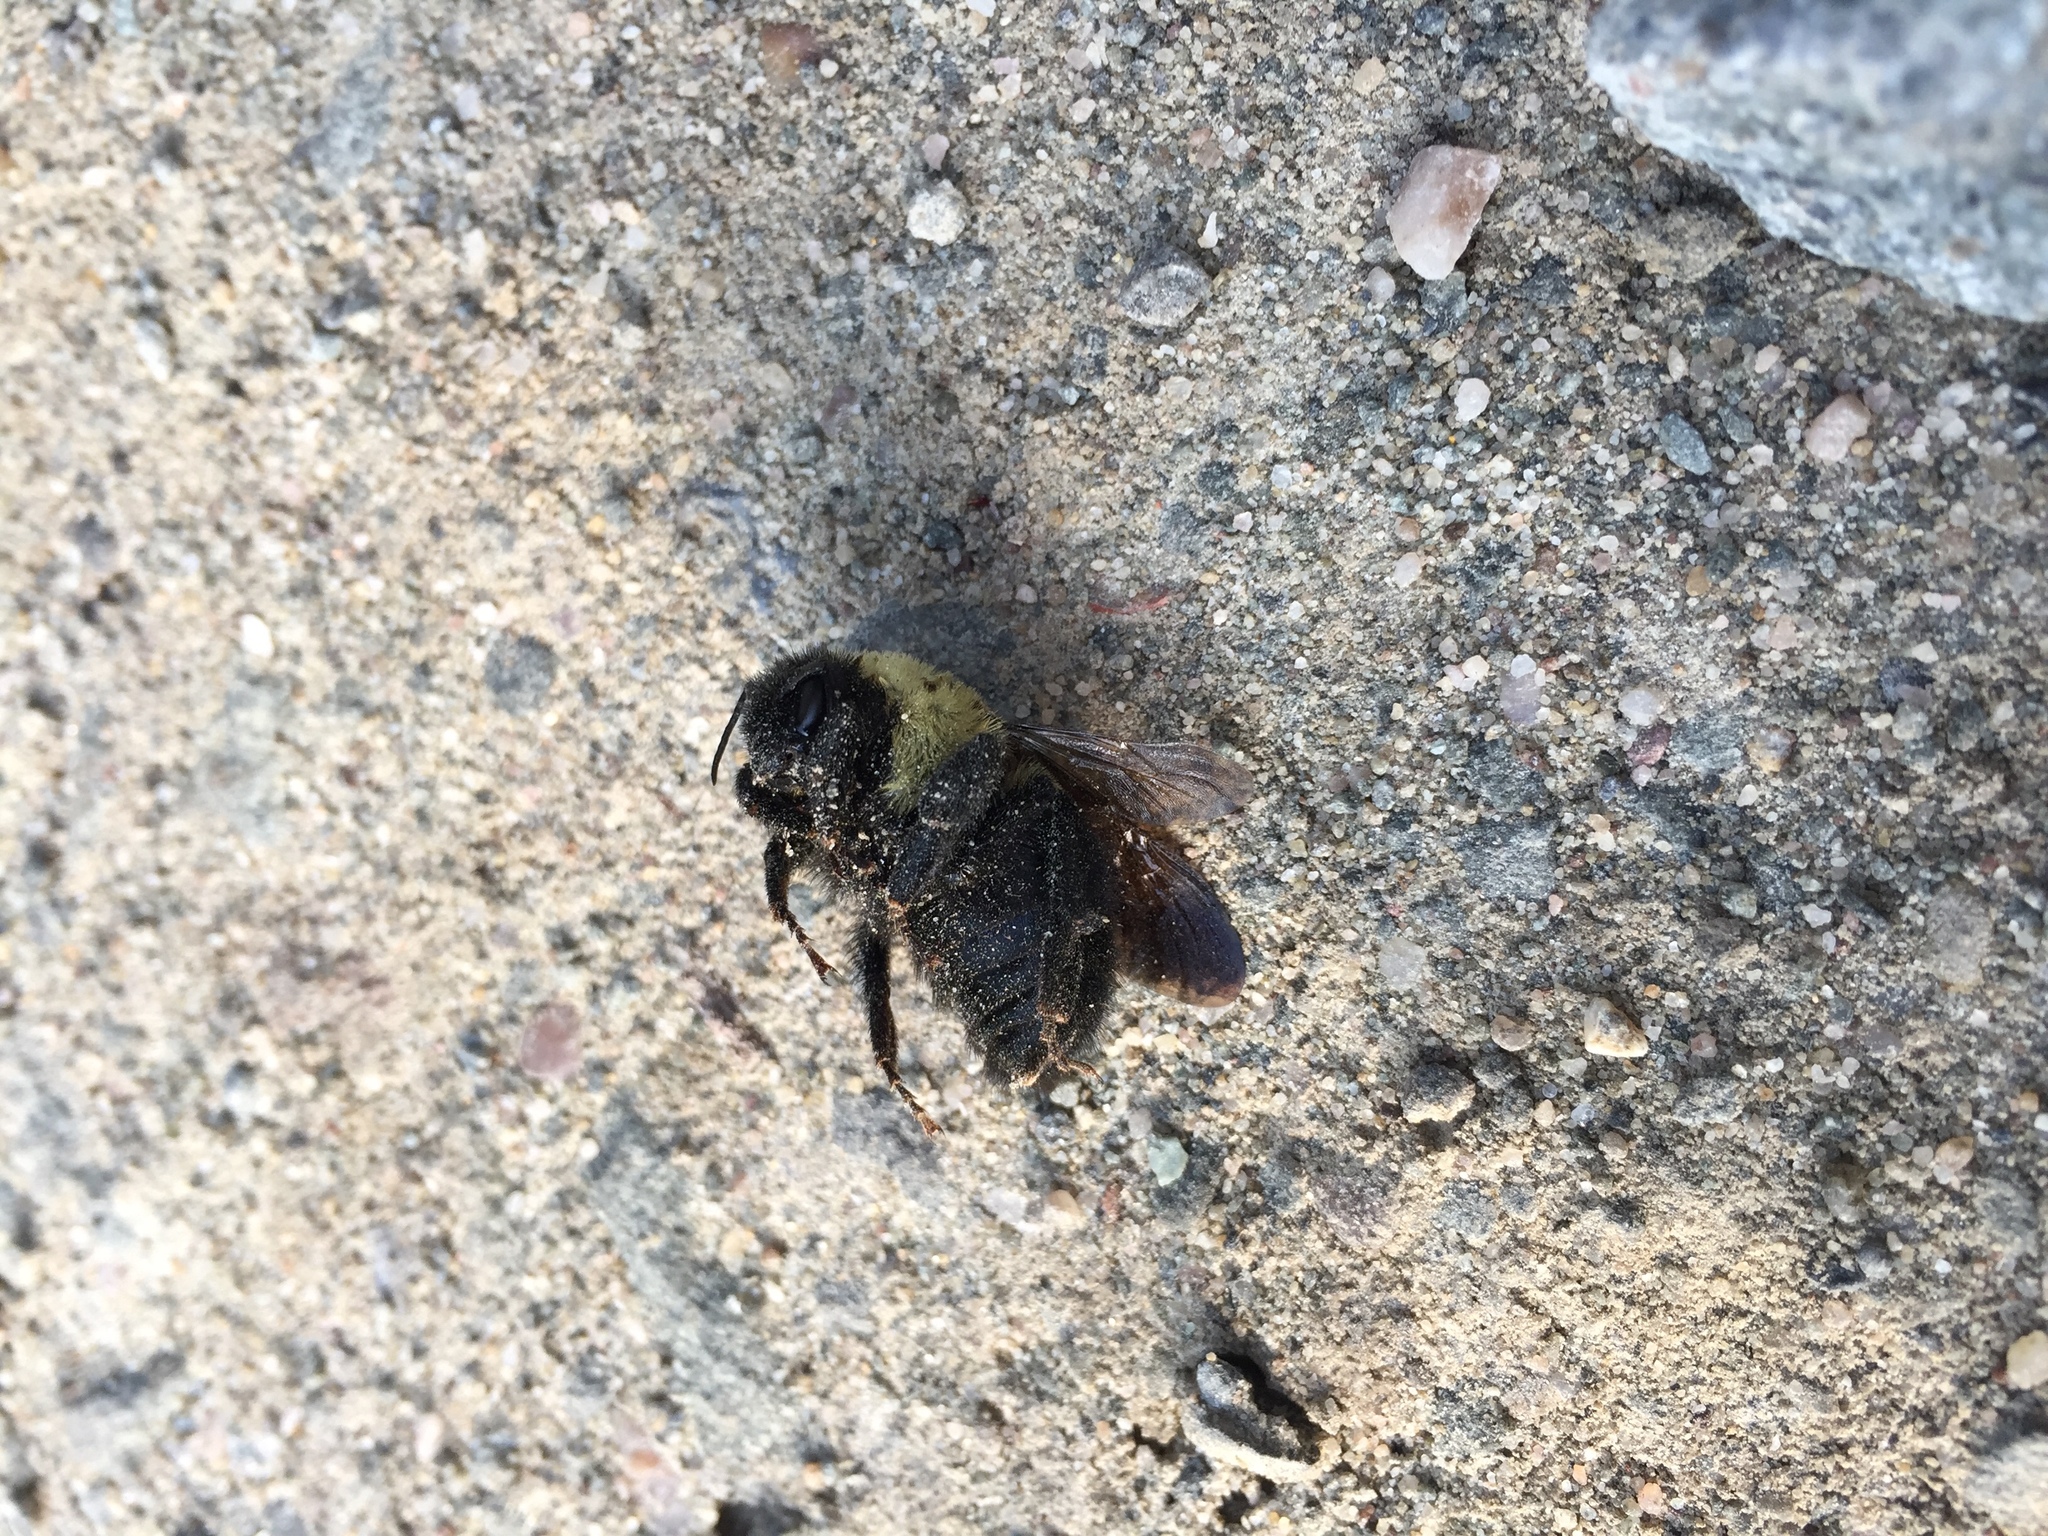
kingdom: Animalia
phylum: Arthropoda
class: Insecta
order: Hymenoptera
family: Apidae
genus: Bombus
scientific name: Bombus griseocollis
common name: Brown-belted bumble bee
